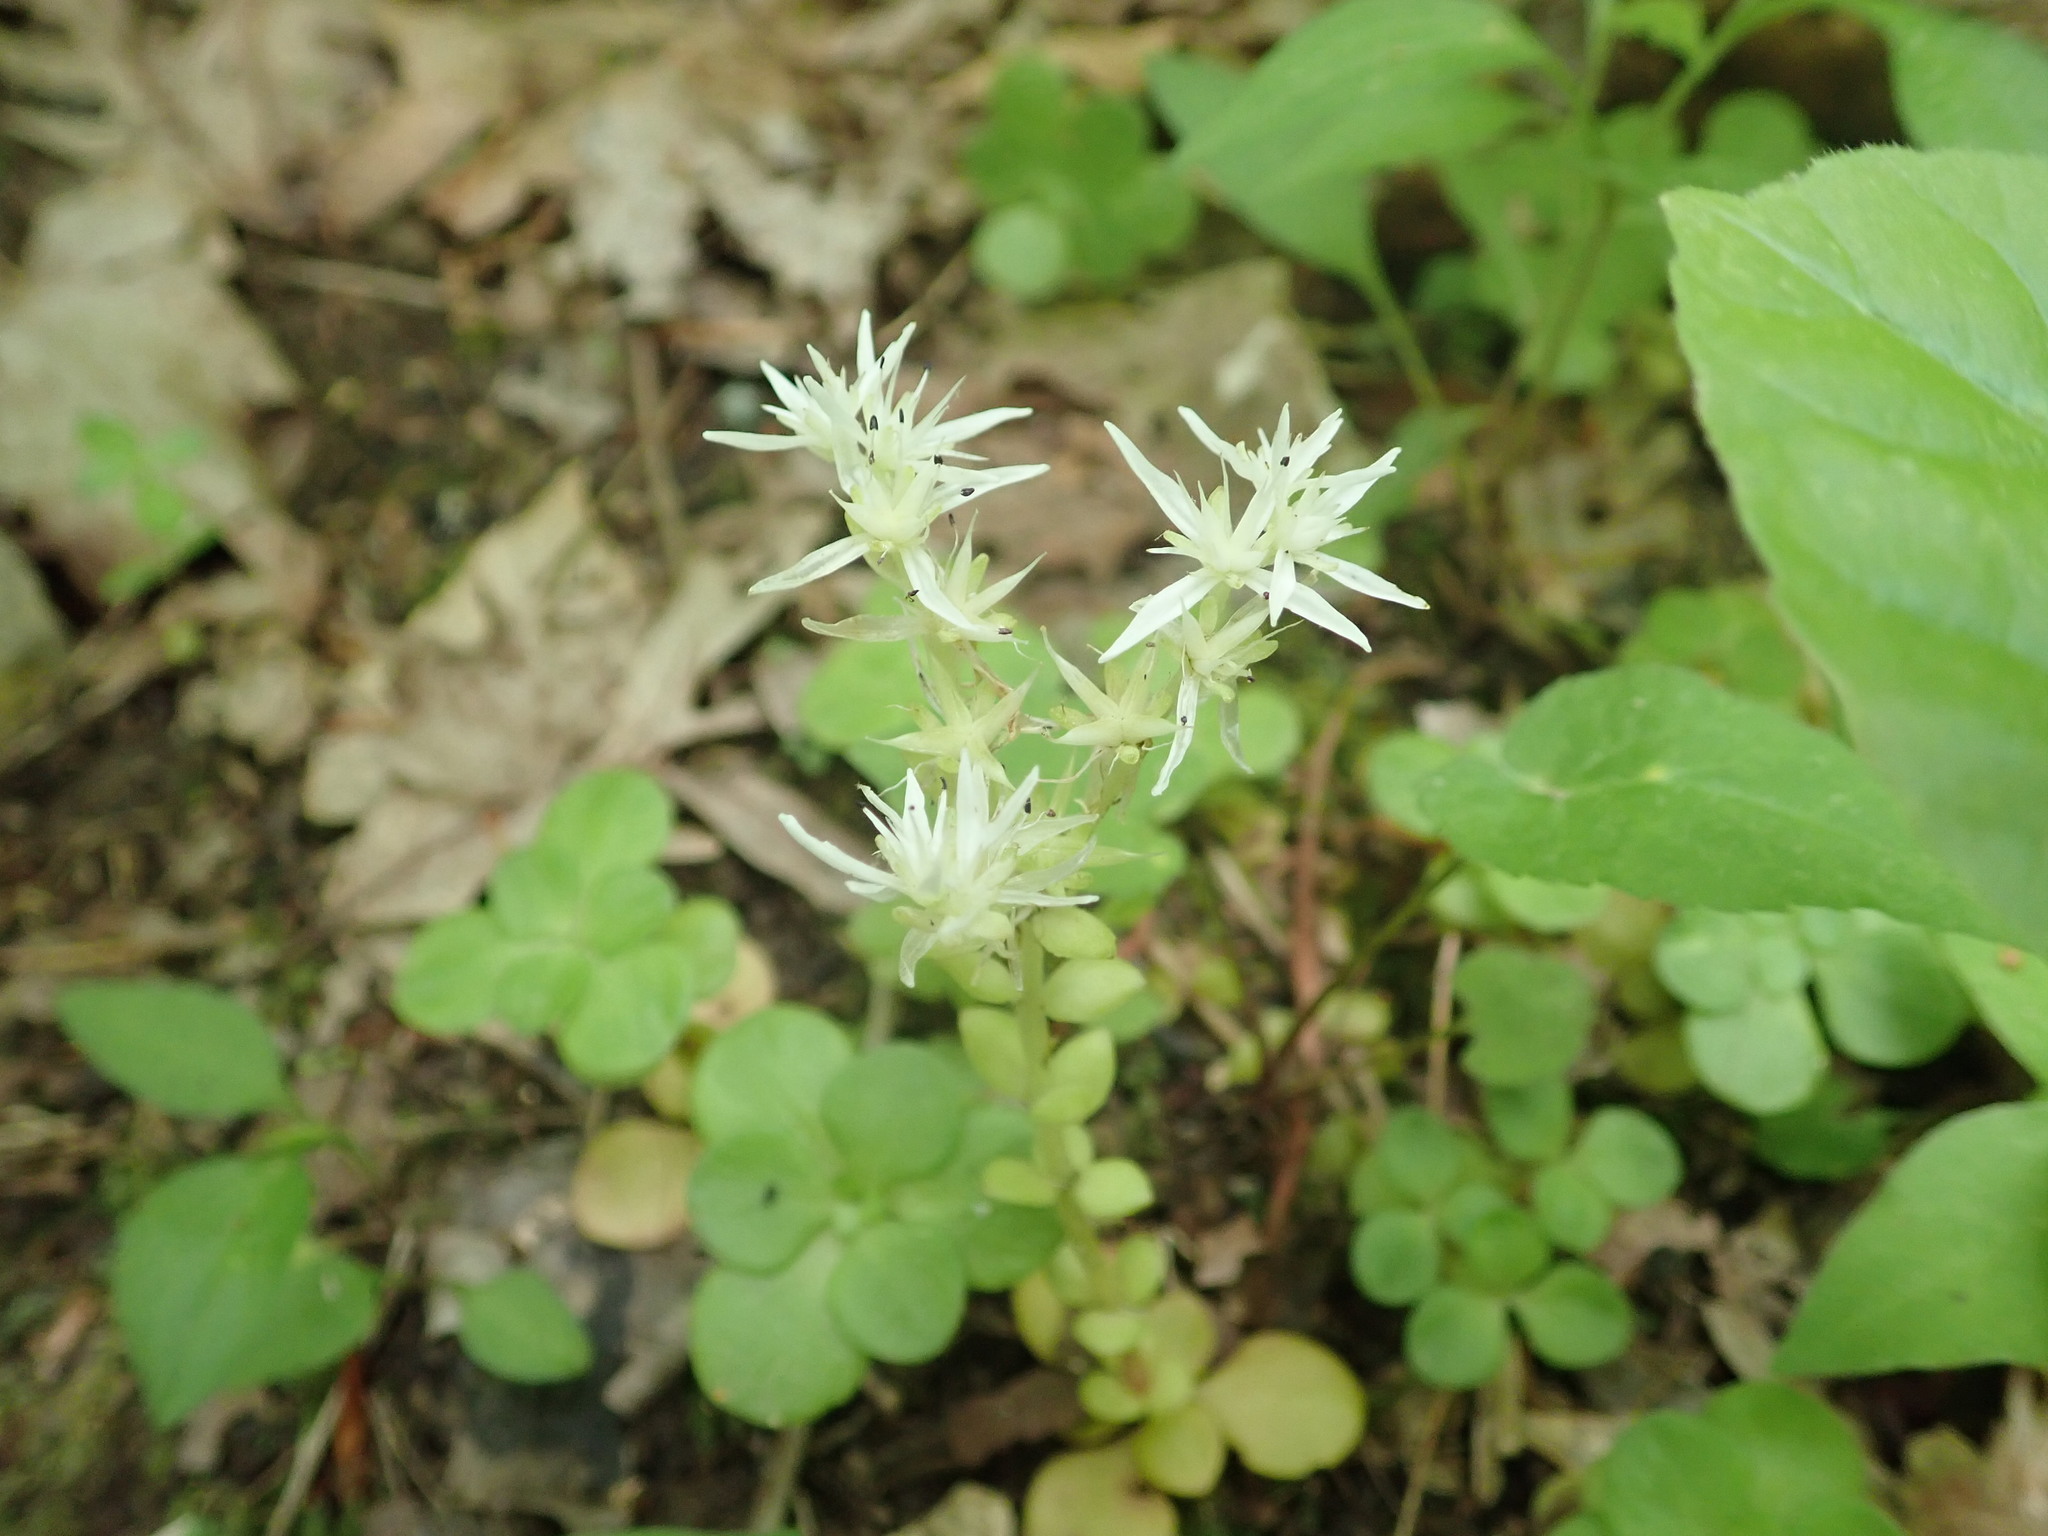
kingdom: Plantae
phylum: Tracheophyta
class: Magnoliopsida
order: Saxifragales
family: Crassulaceae
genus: Sedum
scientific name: Sedum ternatum
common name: Wild stonecrop
